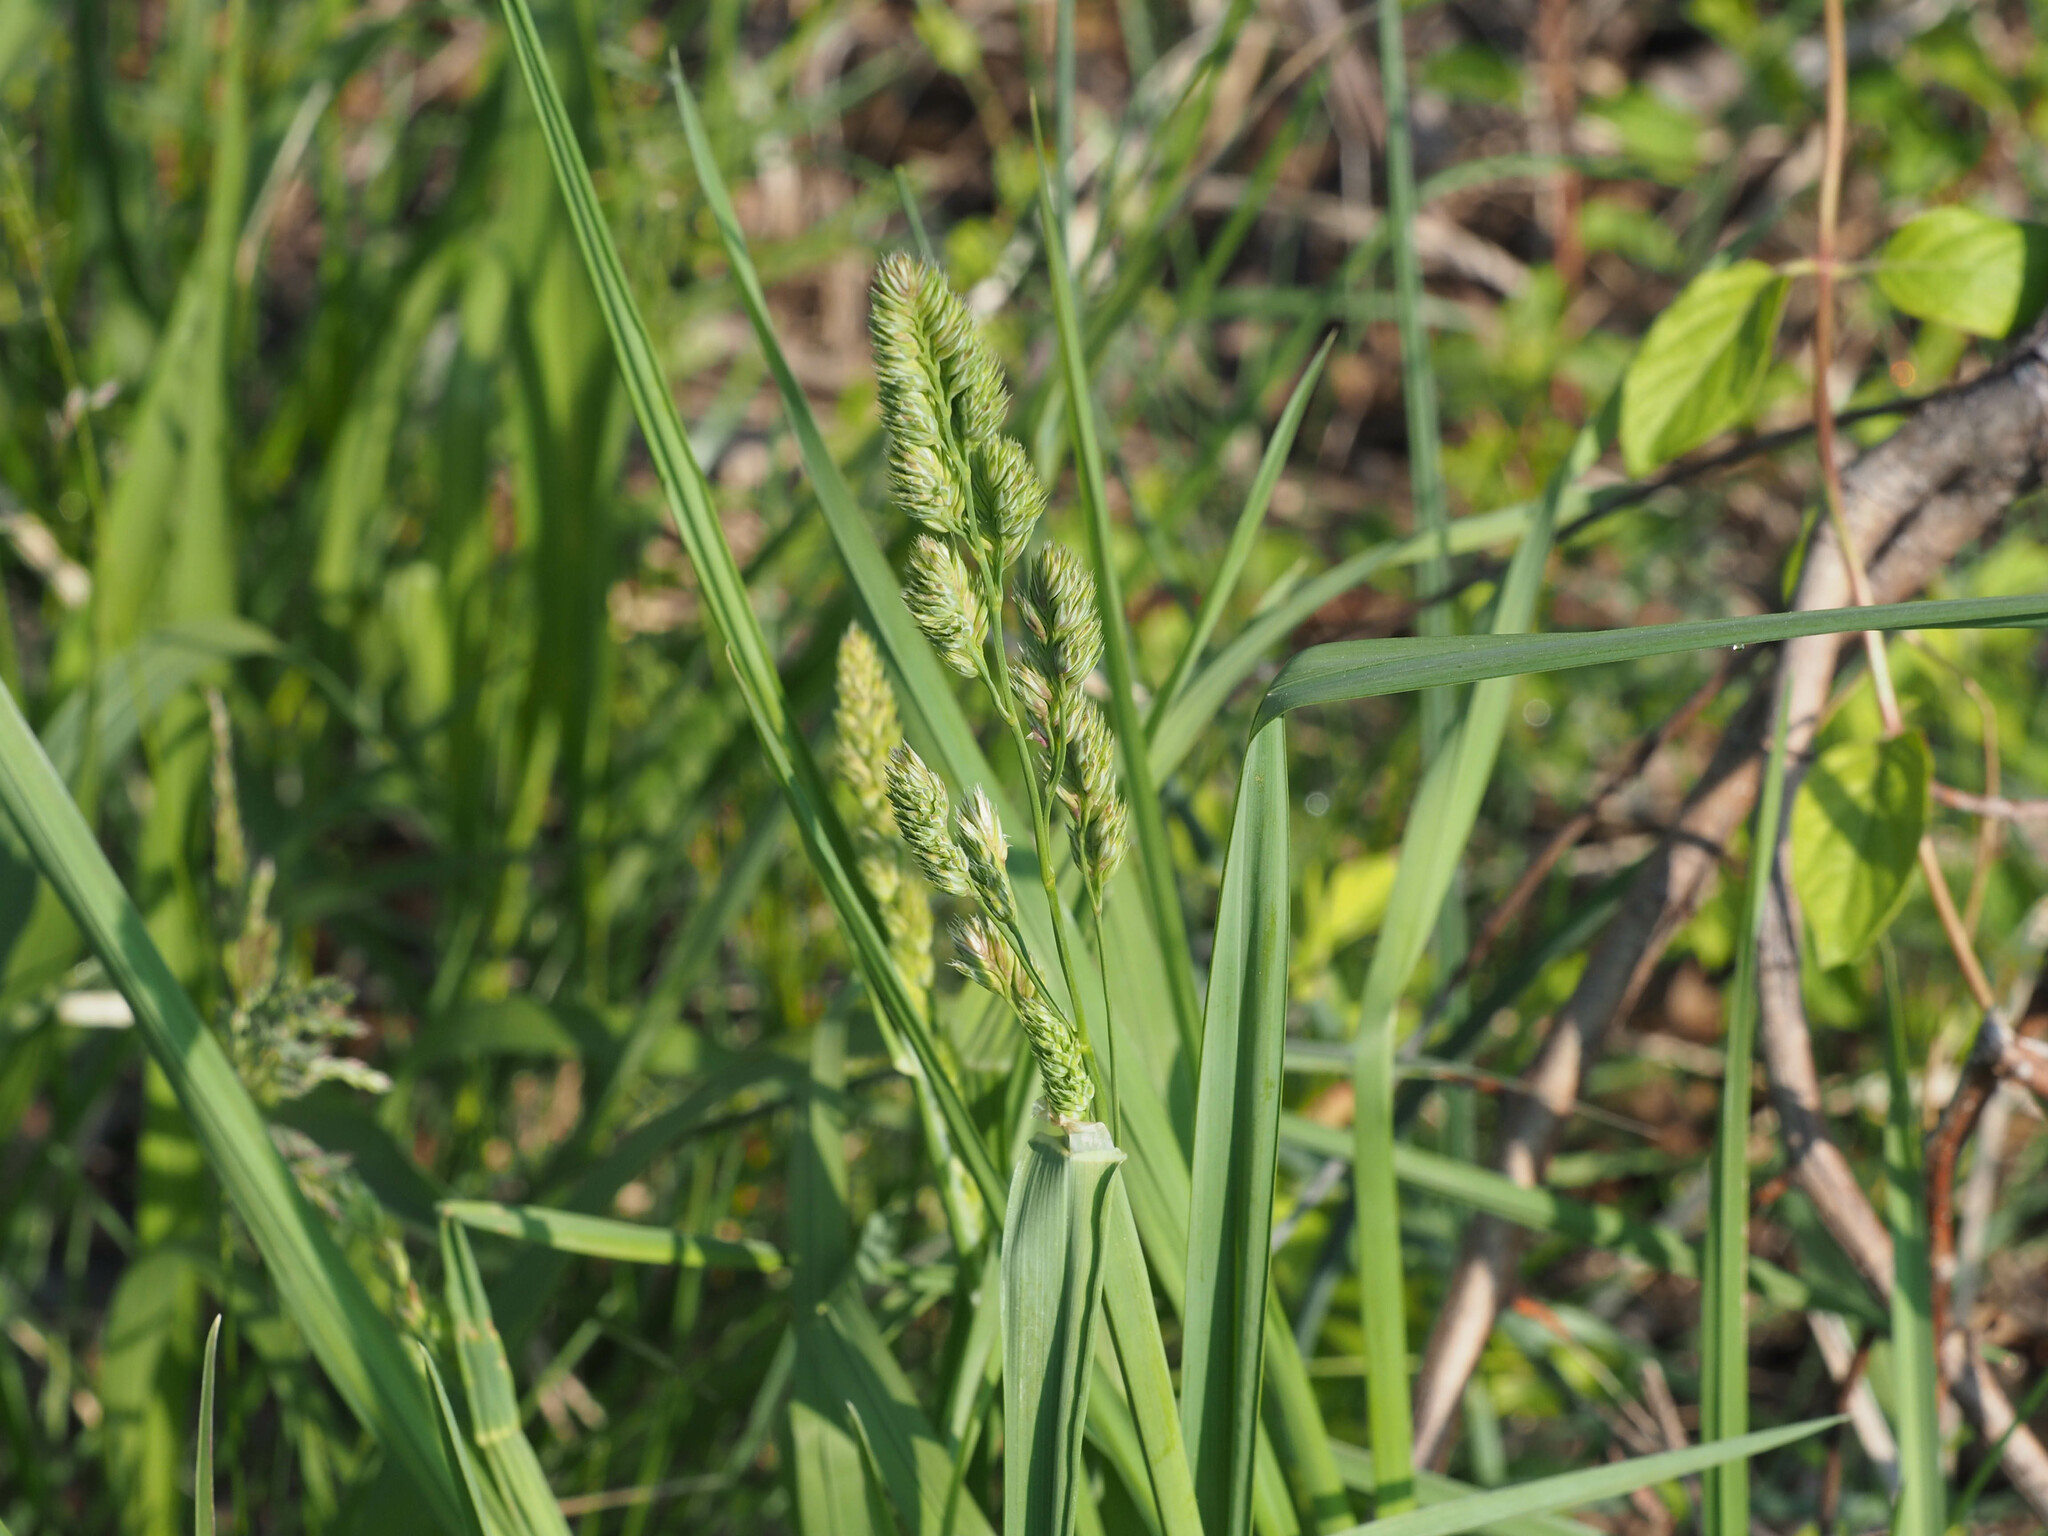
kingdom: Plantae
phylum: Tracheophyta
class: Liliopsida
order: Poales
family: Poaceae
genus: Dactylis
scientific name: Dactylis glomerata
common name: Orchardgrass
